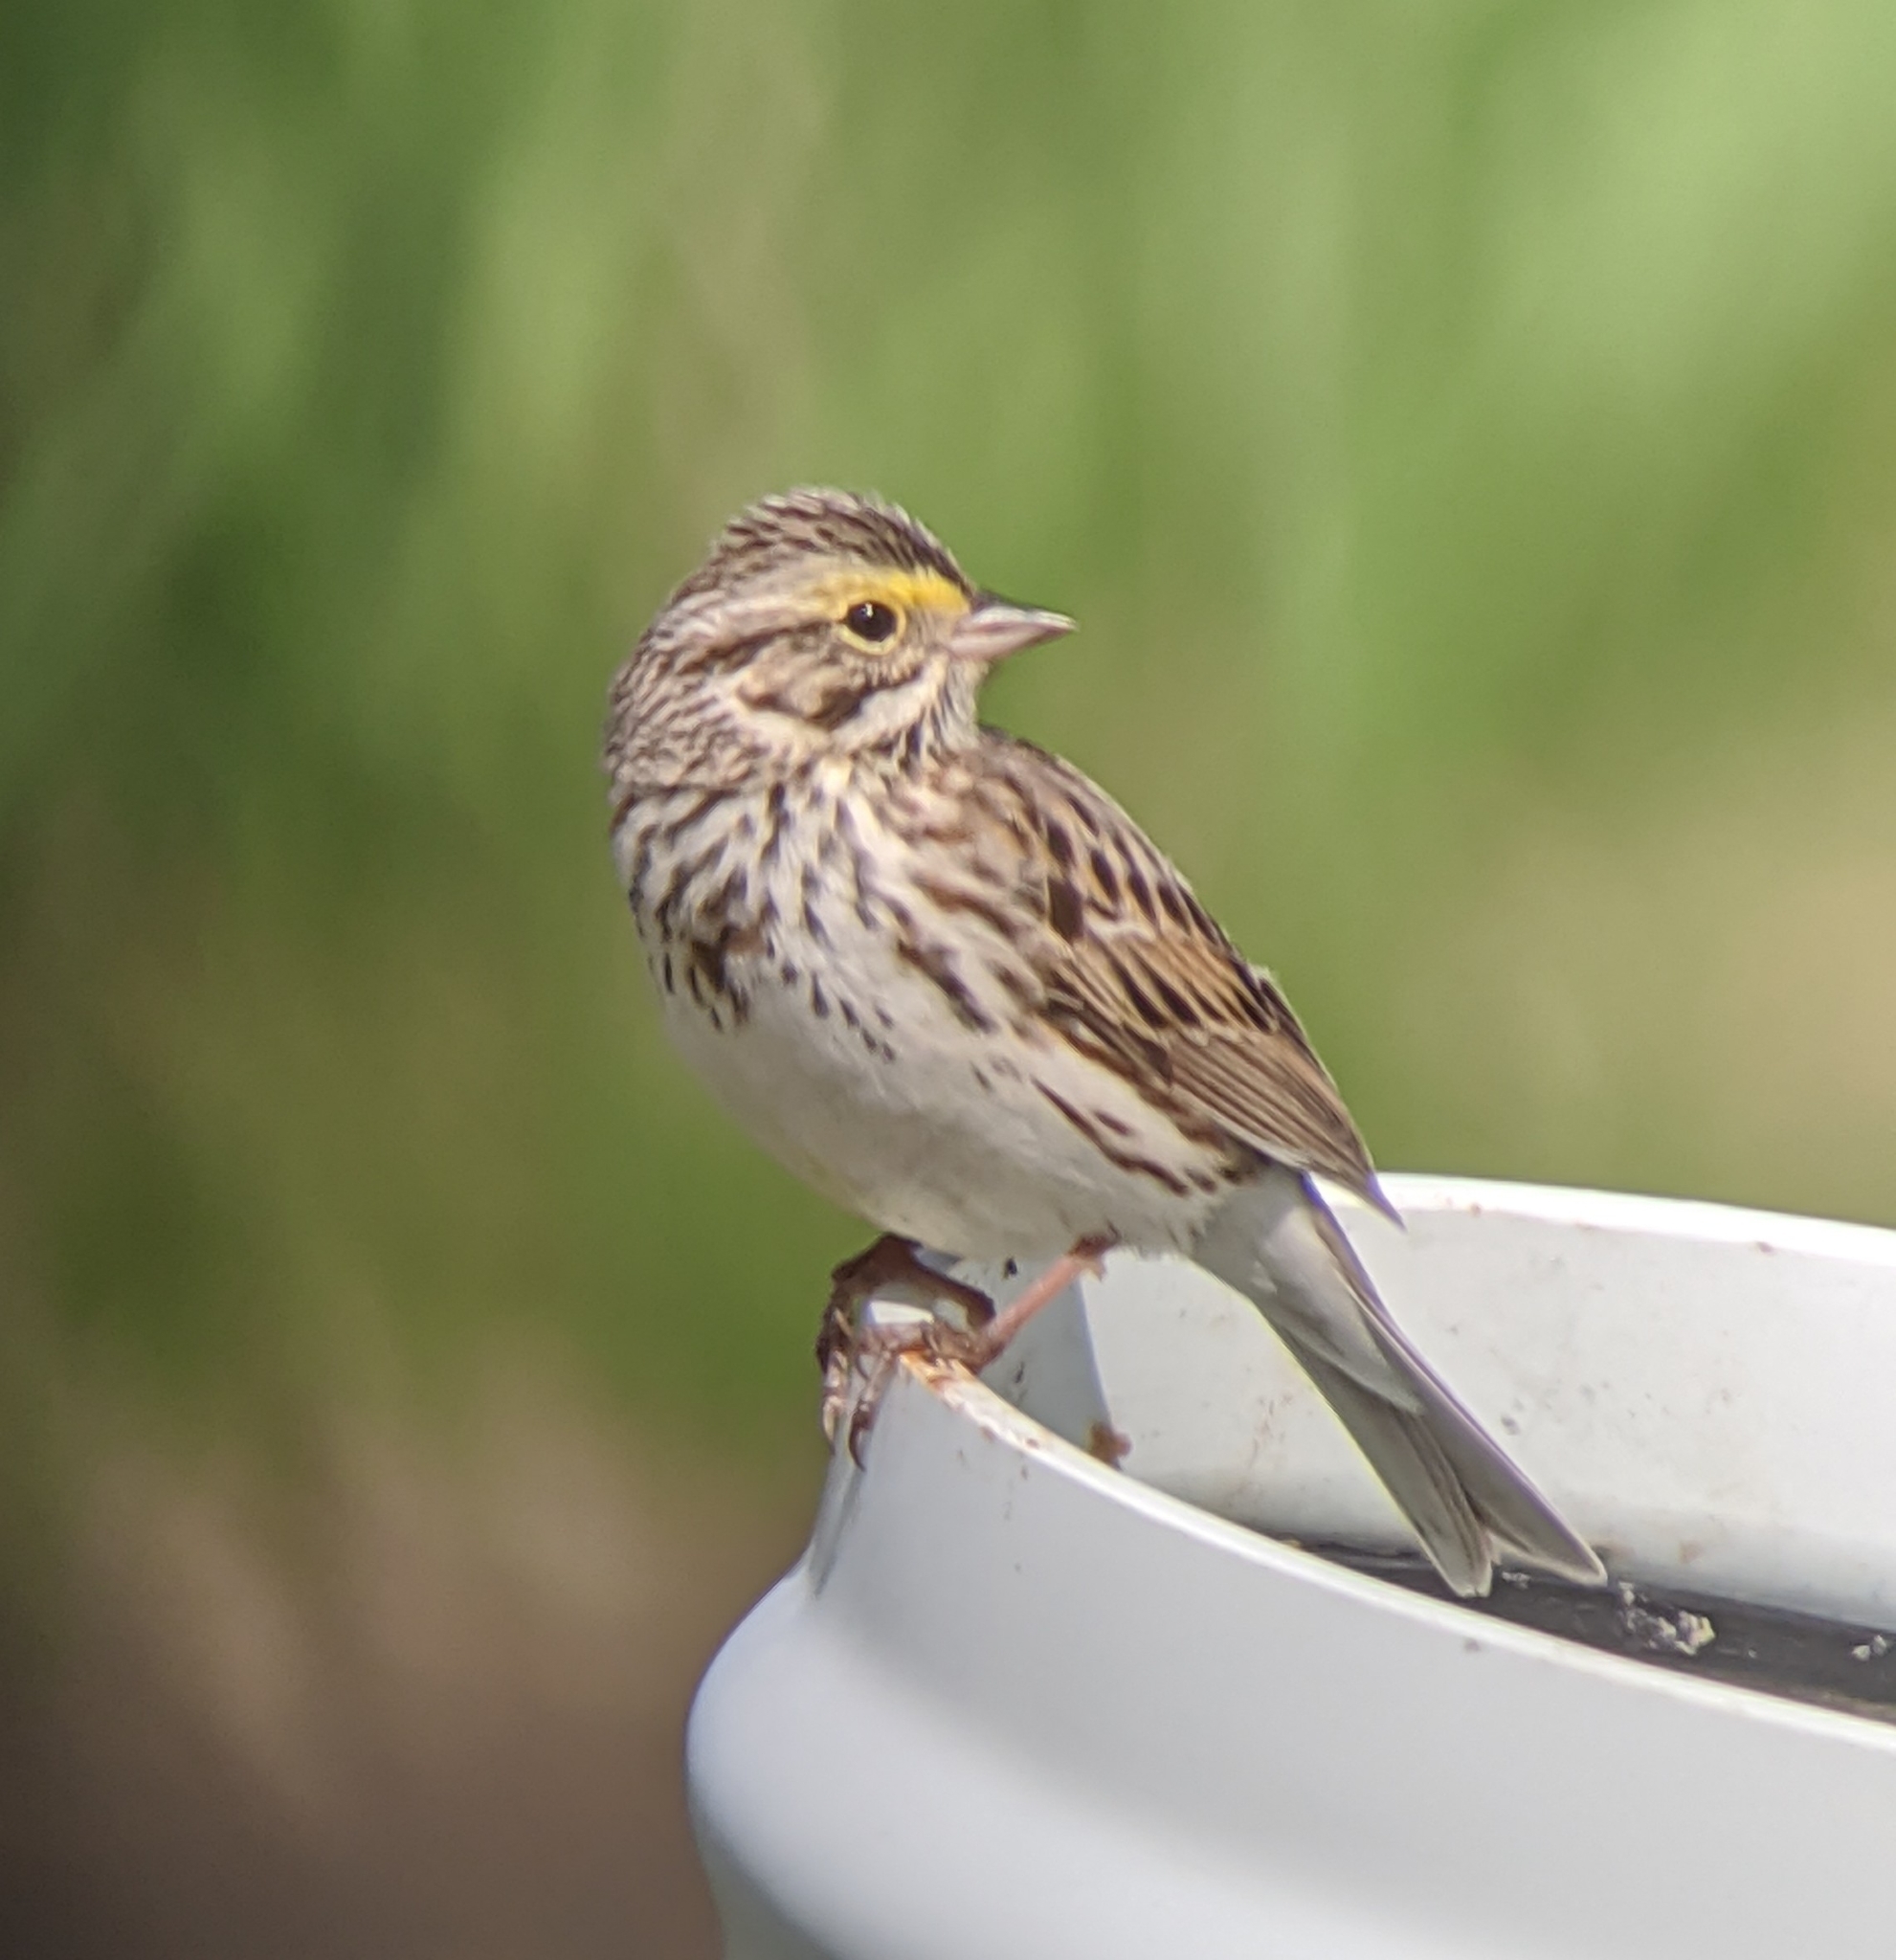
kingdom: Animalia
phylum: Chordata
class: Aves
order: Passeriformes
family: Passerellidae
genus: Passerculus
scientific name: Passerculus sandwichensis
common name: Savannah sparrow
